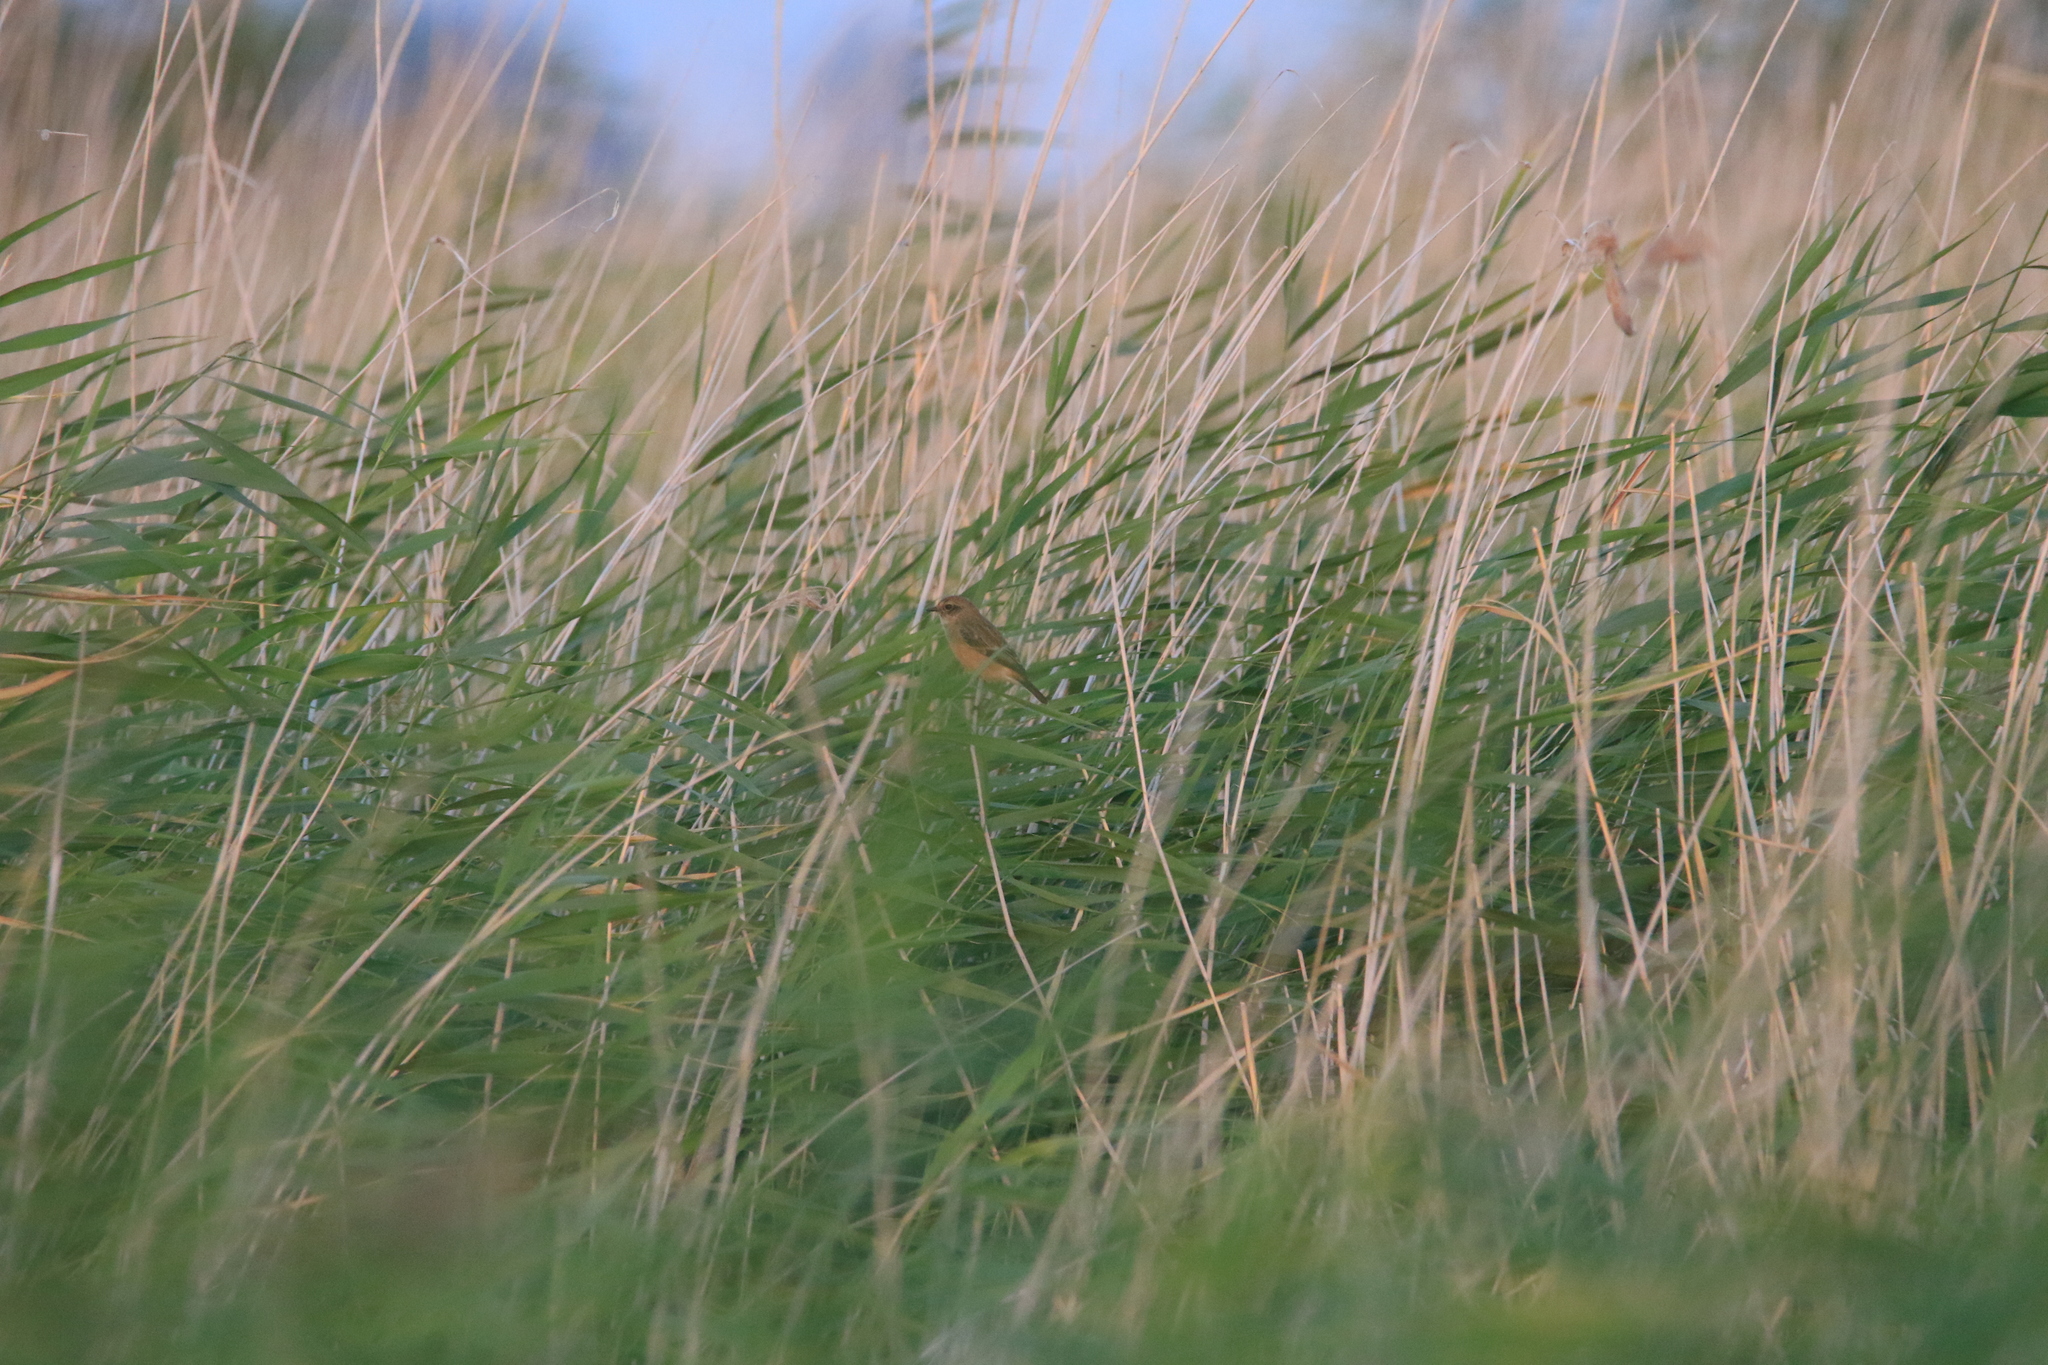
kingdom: Animalia
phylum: Chordata
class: Aves
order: Passeriformes
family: Muscicapidae
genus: Saxicola
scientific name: Saxicola maurus
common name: Siberian stonechat
